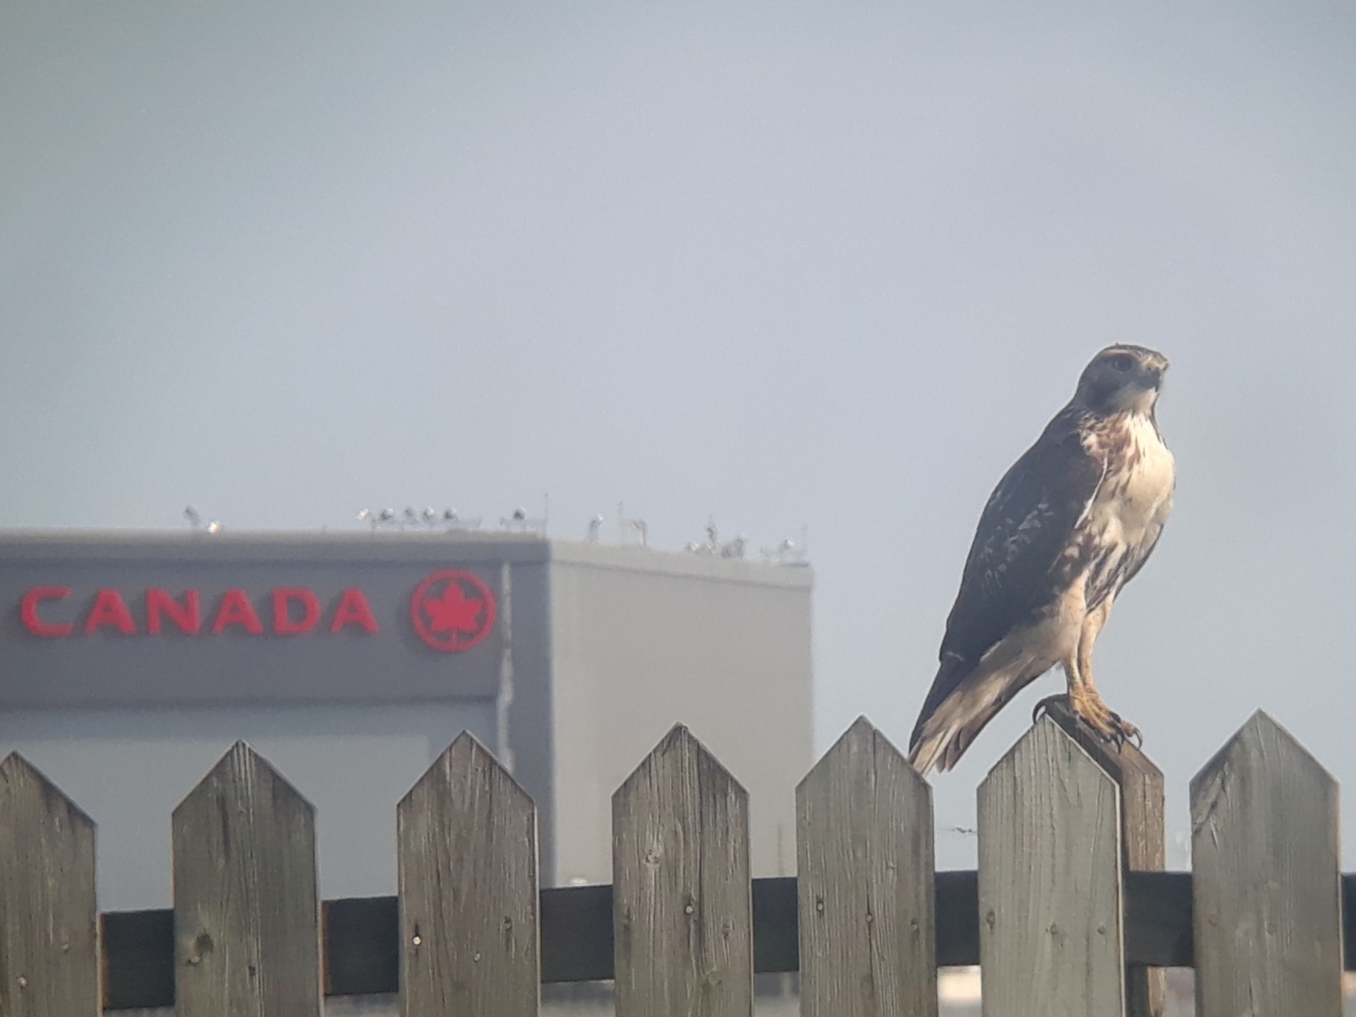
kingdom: Animalia
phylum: Chordata
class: Aves
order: Accipitriformes
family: Accipitridae
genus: Buteo
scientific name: Buteo jamaicensis
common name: Red-tailed hawk
